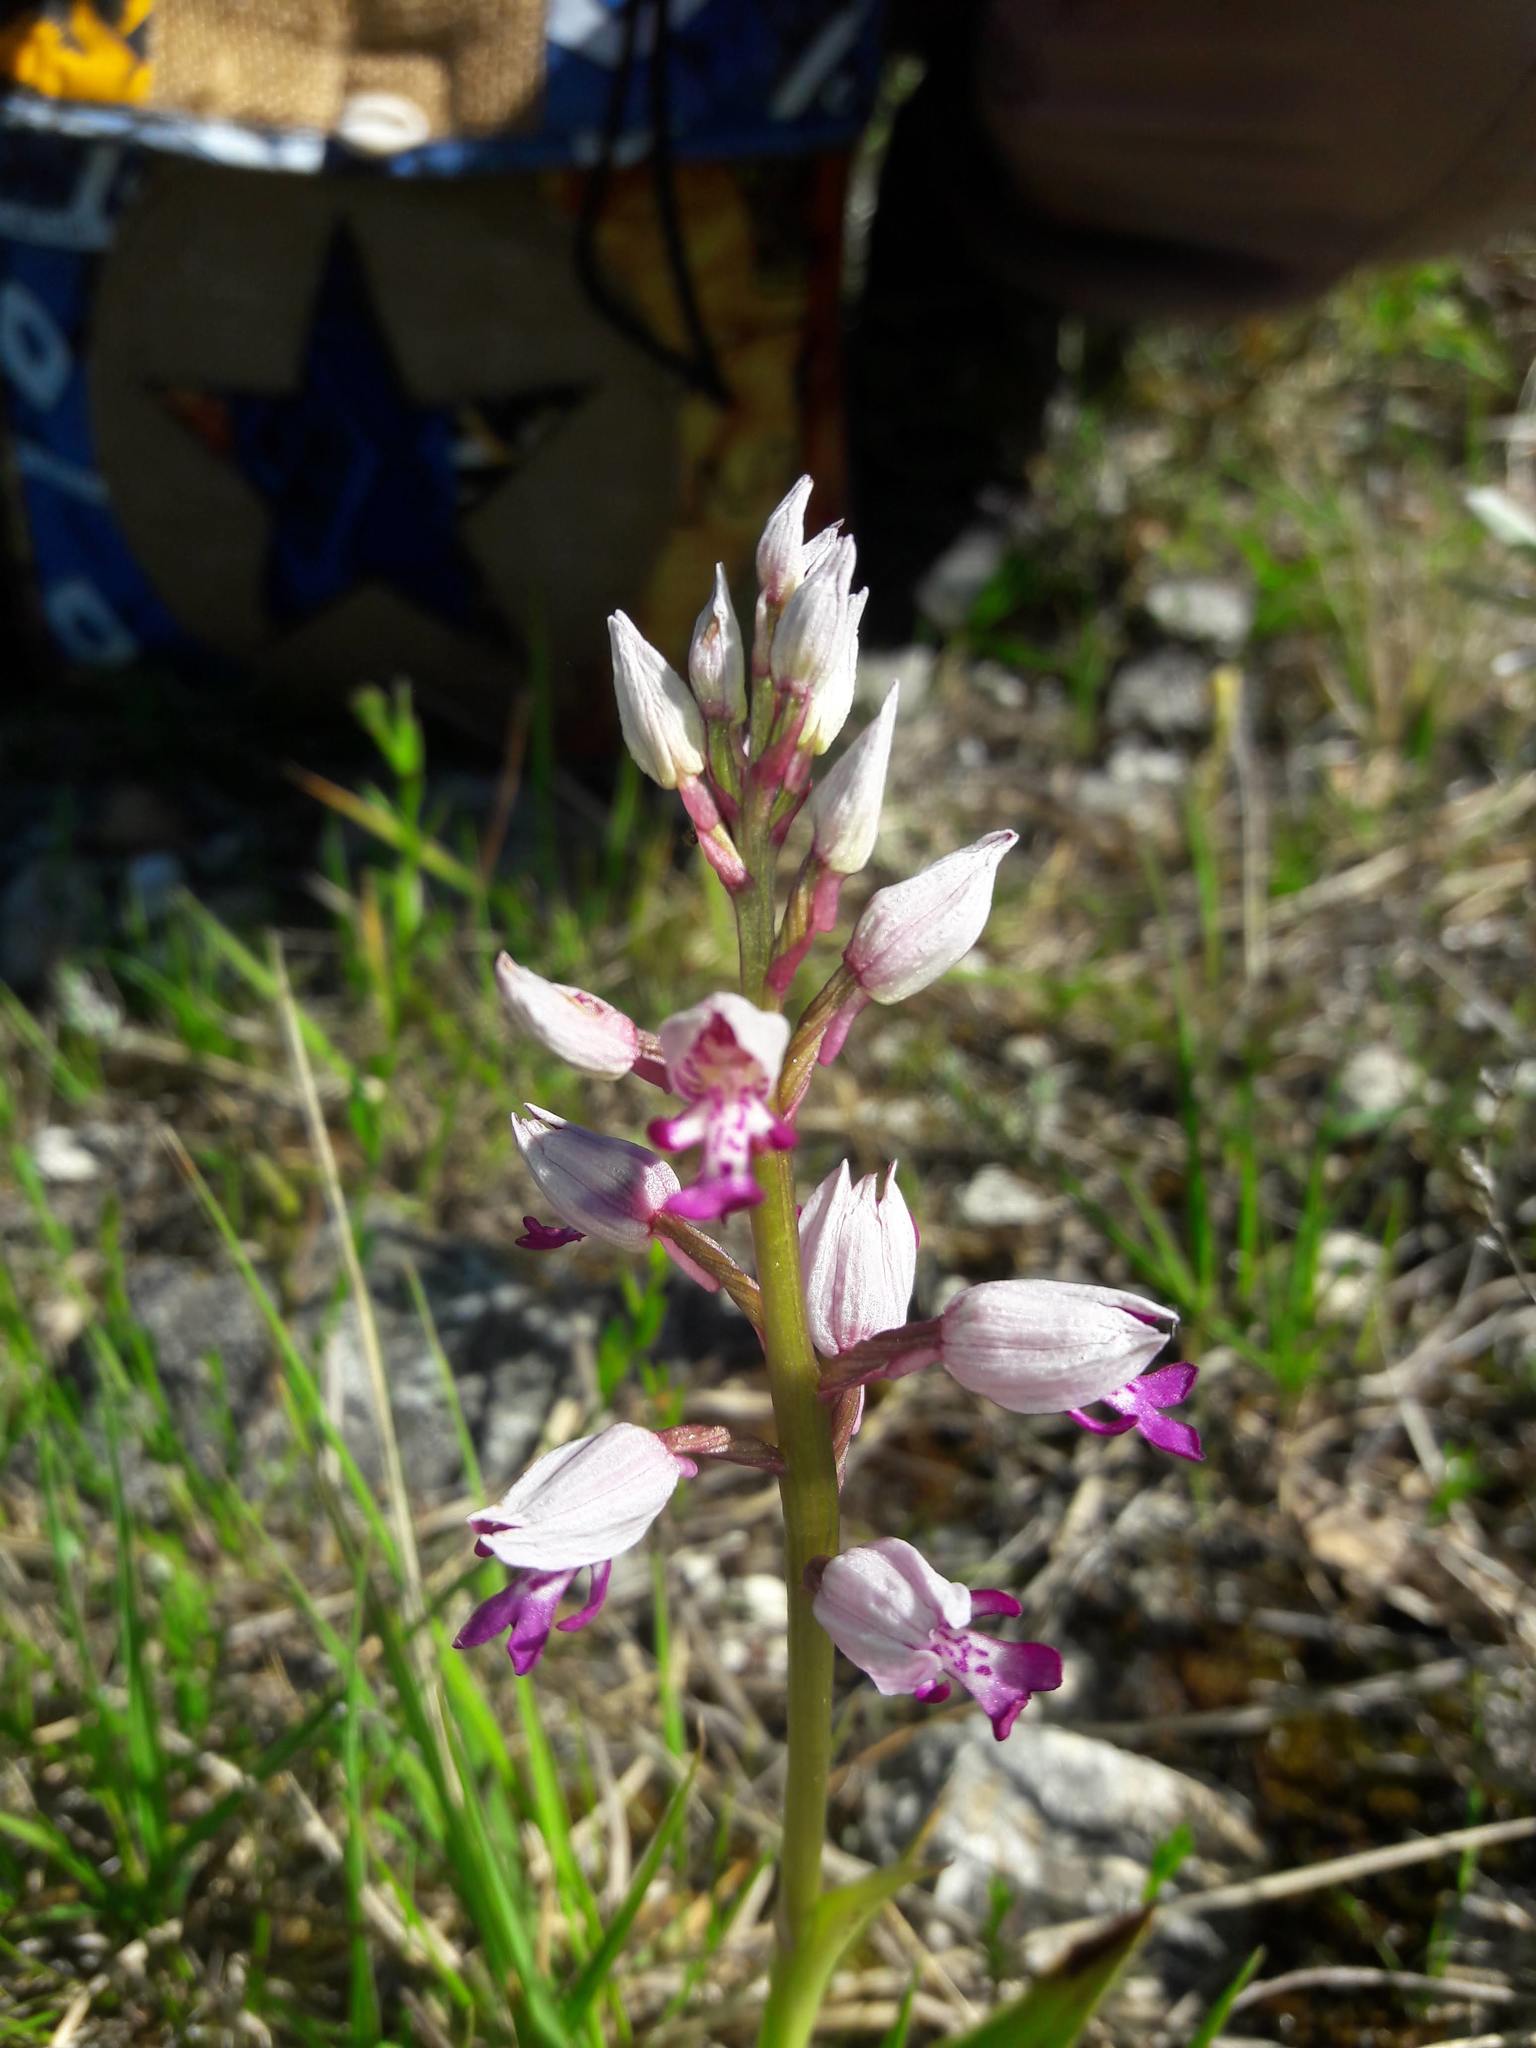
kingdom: Plantae
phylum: Tracheophyta
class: Liliopsida
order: Asparagales
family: Orchidaceae
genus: Orchis
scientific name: Orchis militaris
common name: Military orchid
